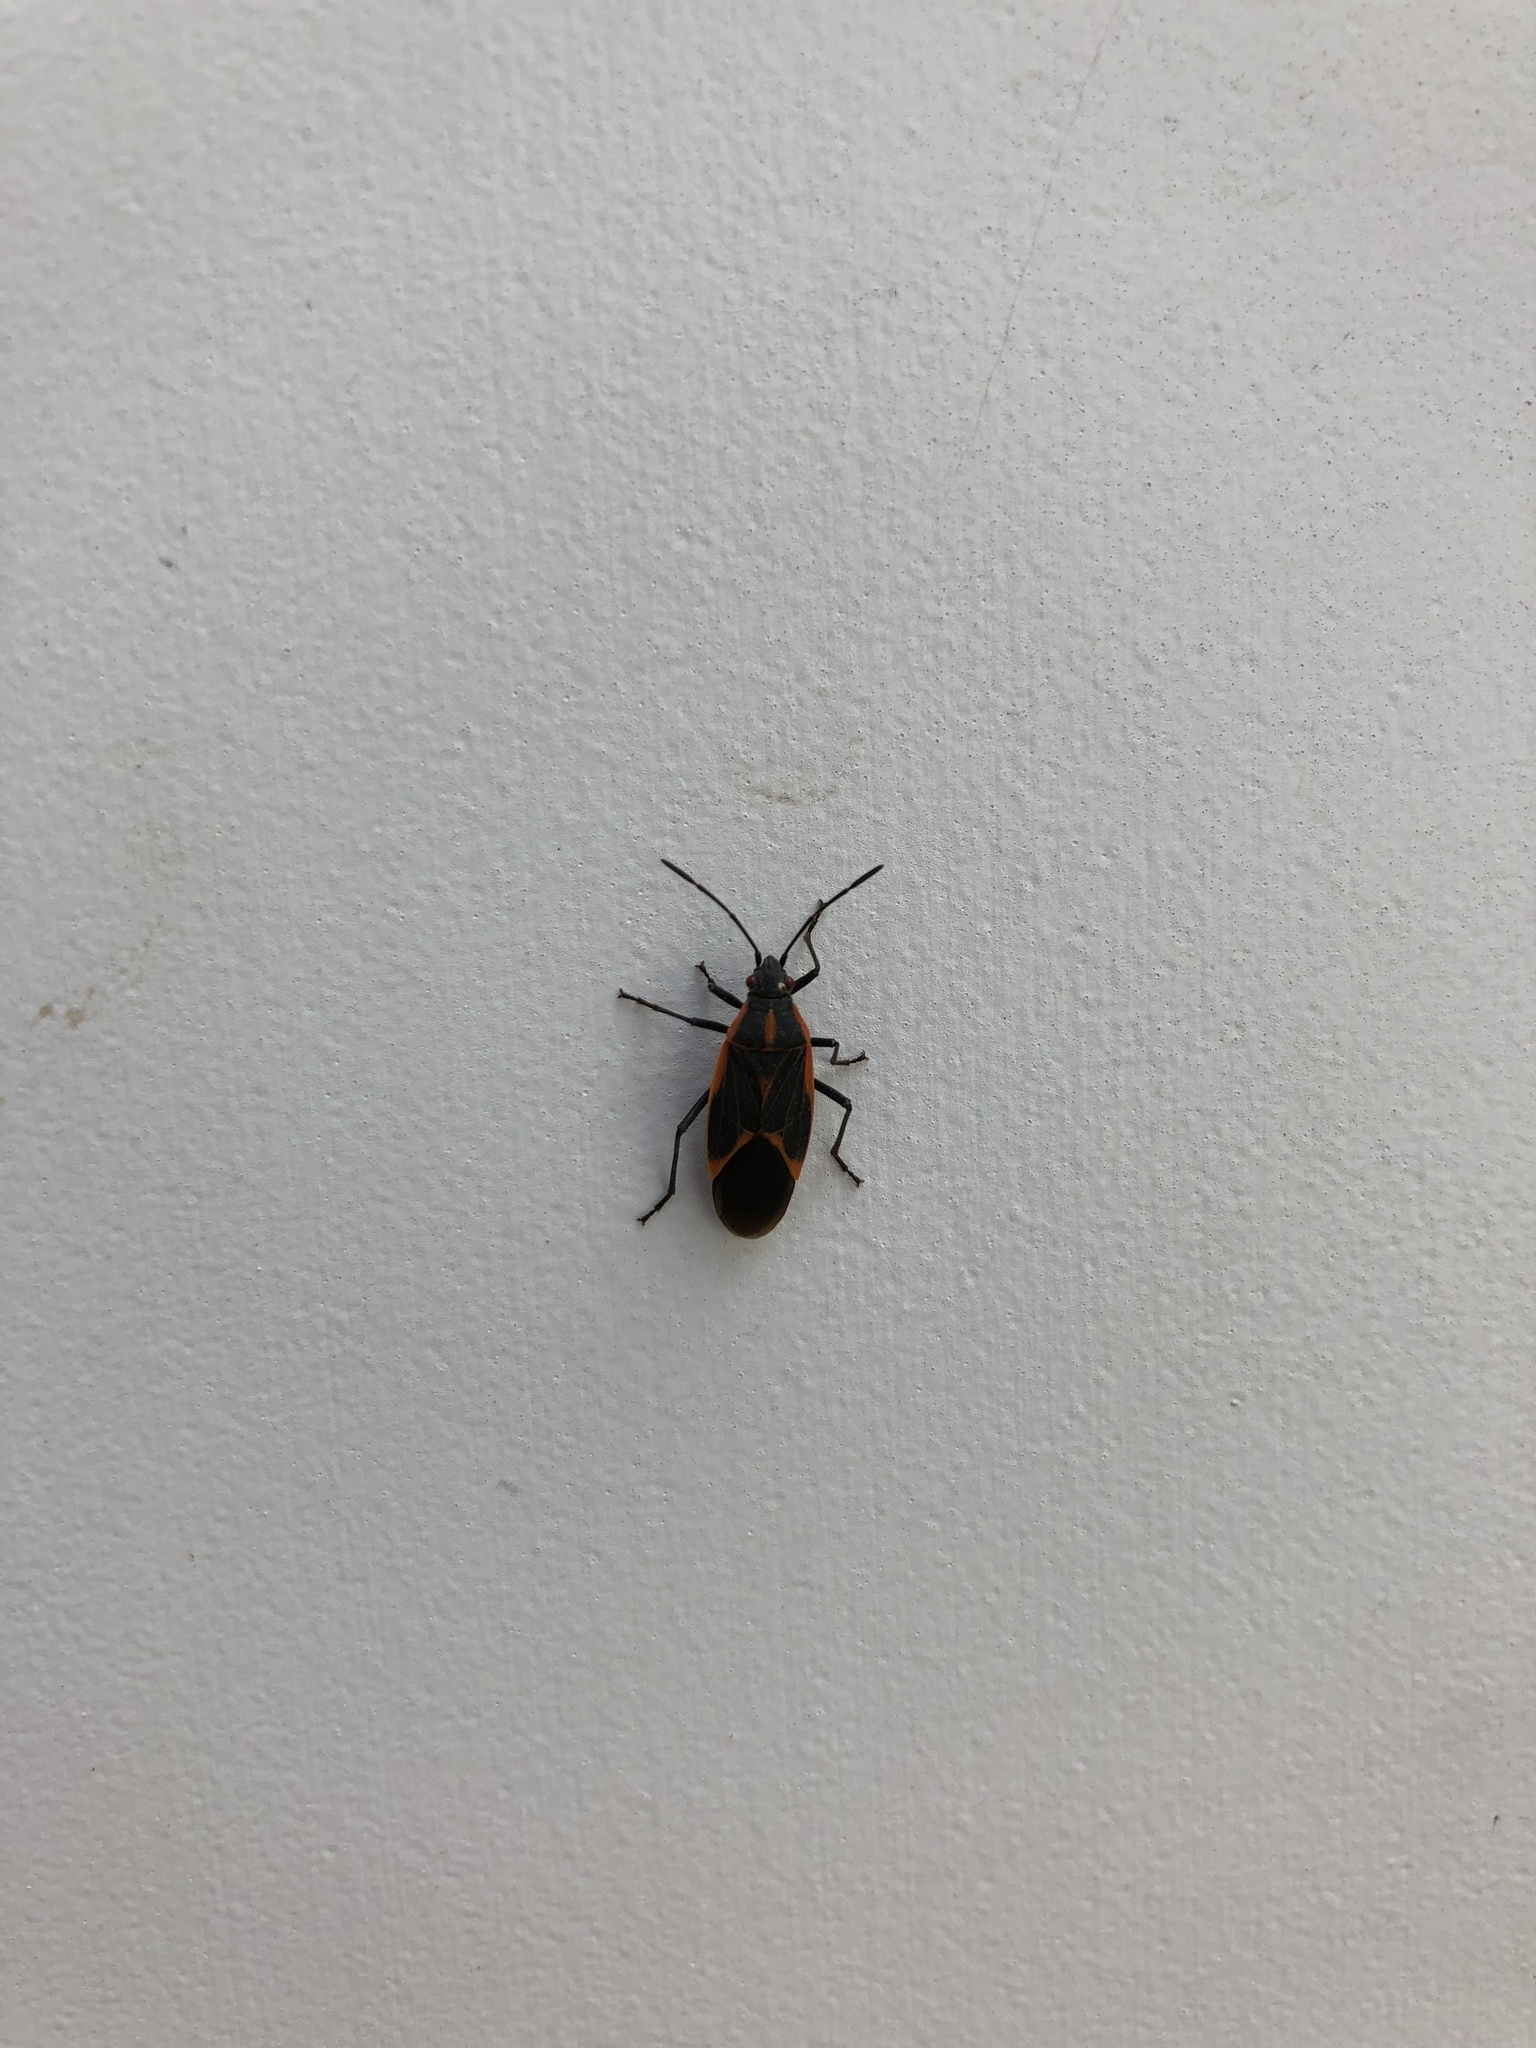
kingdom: Animalia
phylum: Arthropoda
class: Insecta
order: Hemiptera
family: Rhopalidae
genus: Boisea
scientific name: Boisea trivittata
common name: Boxelder bug
